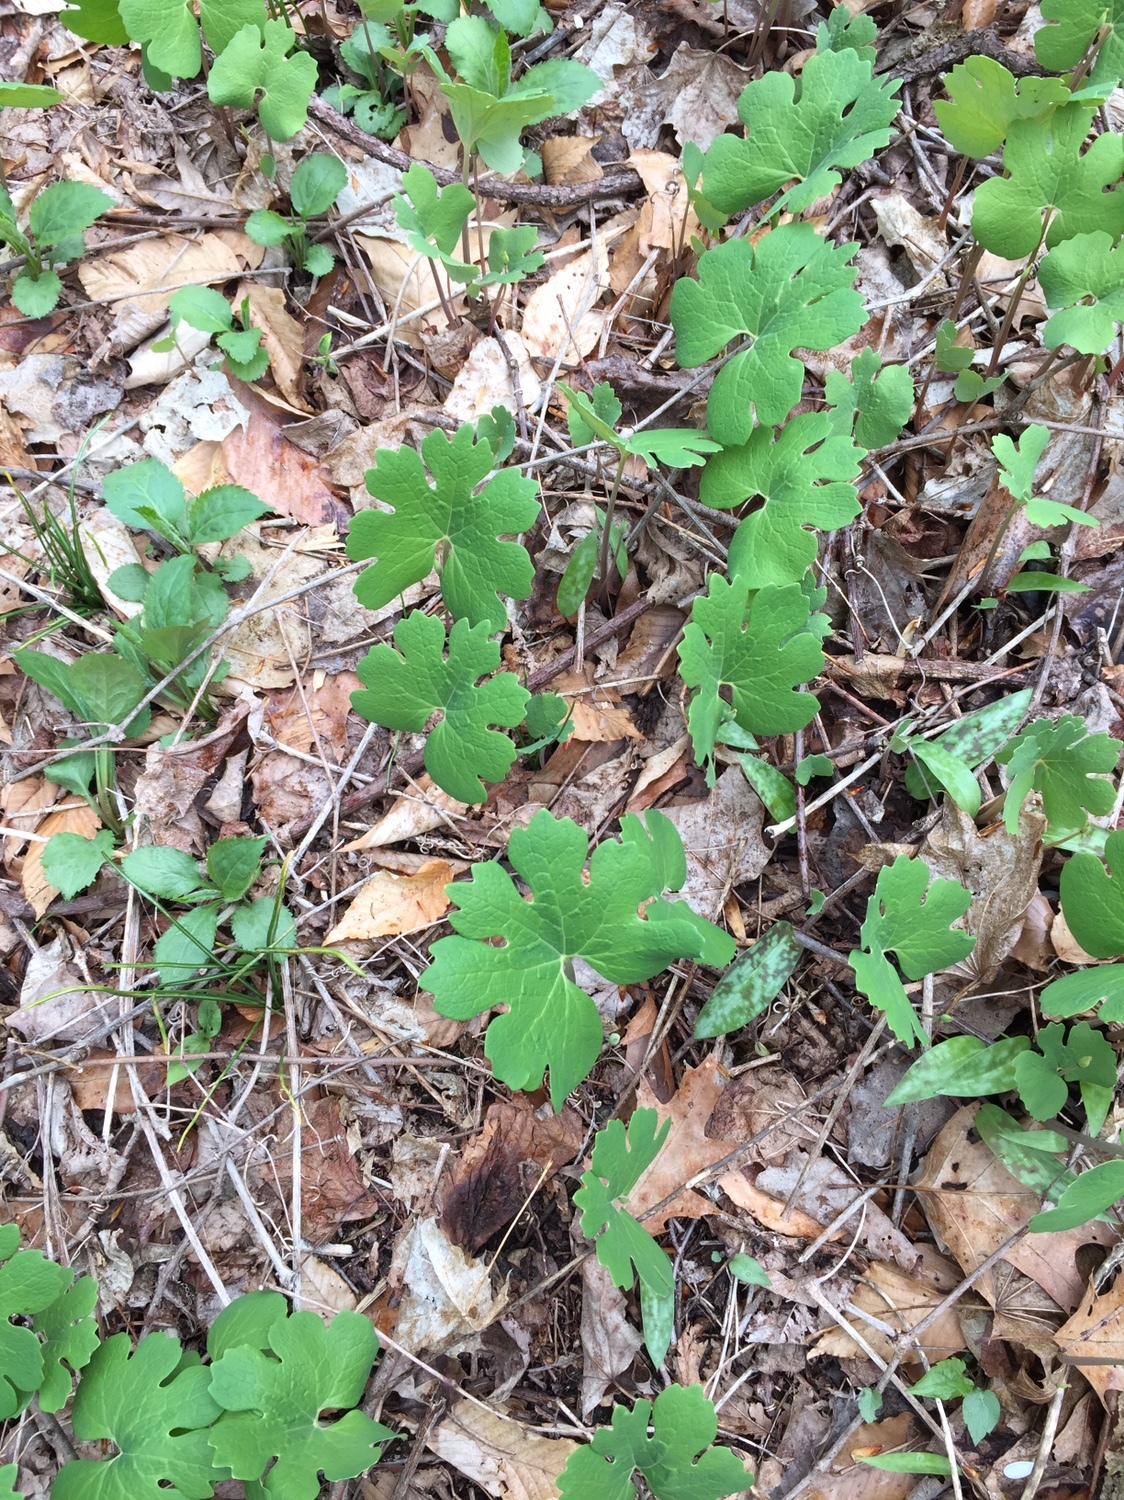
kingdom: Plantae
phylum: Tracheophyta
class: Magnoliopsida
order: Ranunculales
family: Papaveraceae
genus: Sanguinaria
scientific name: Sanguinaria canadensis
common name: Bloodroot
